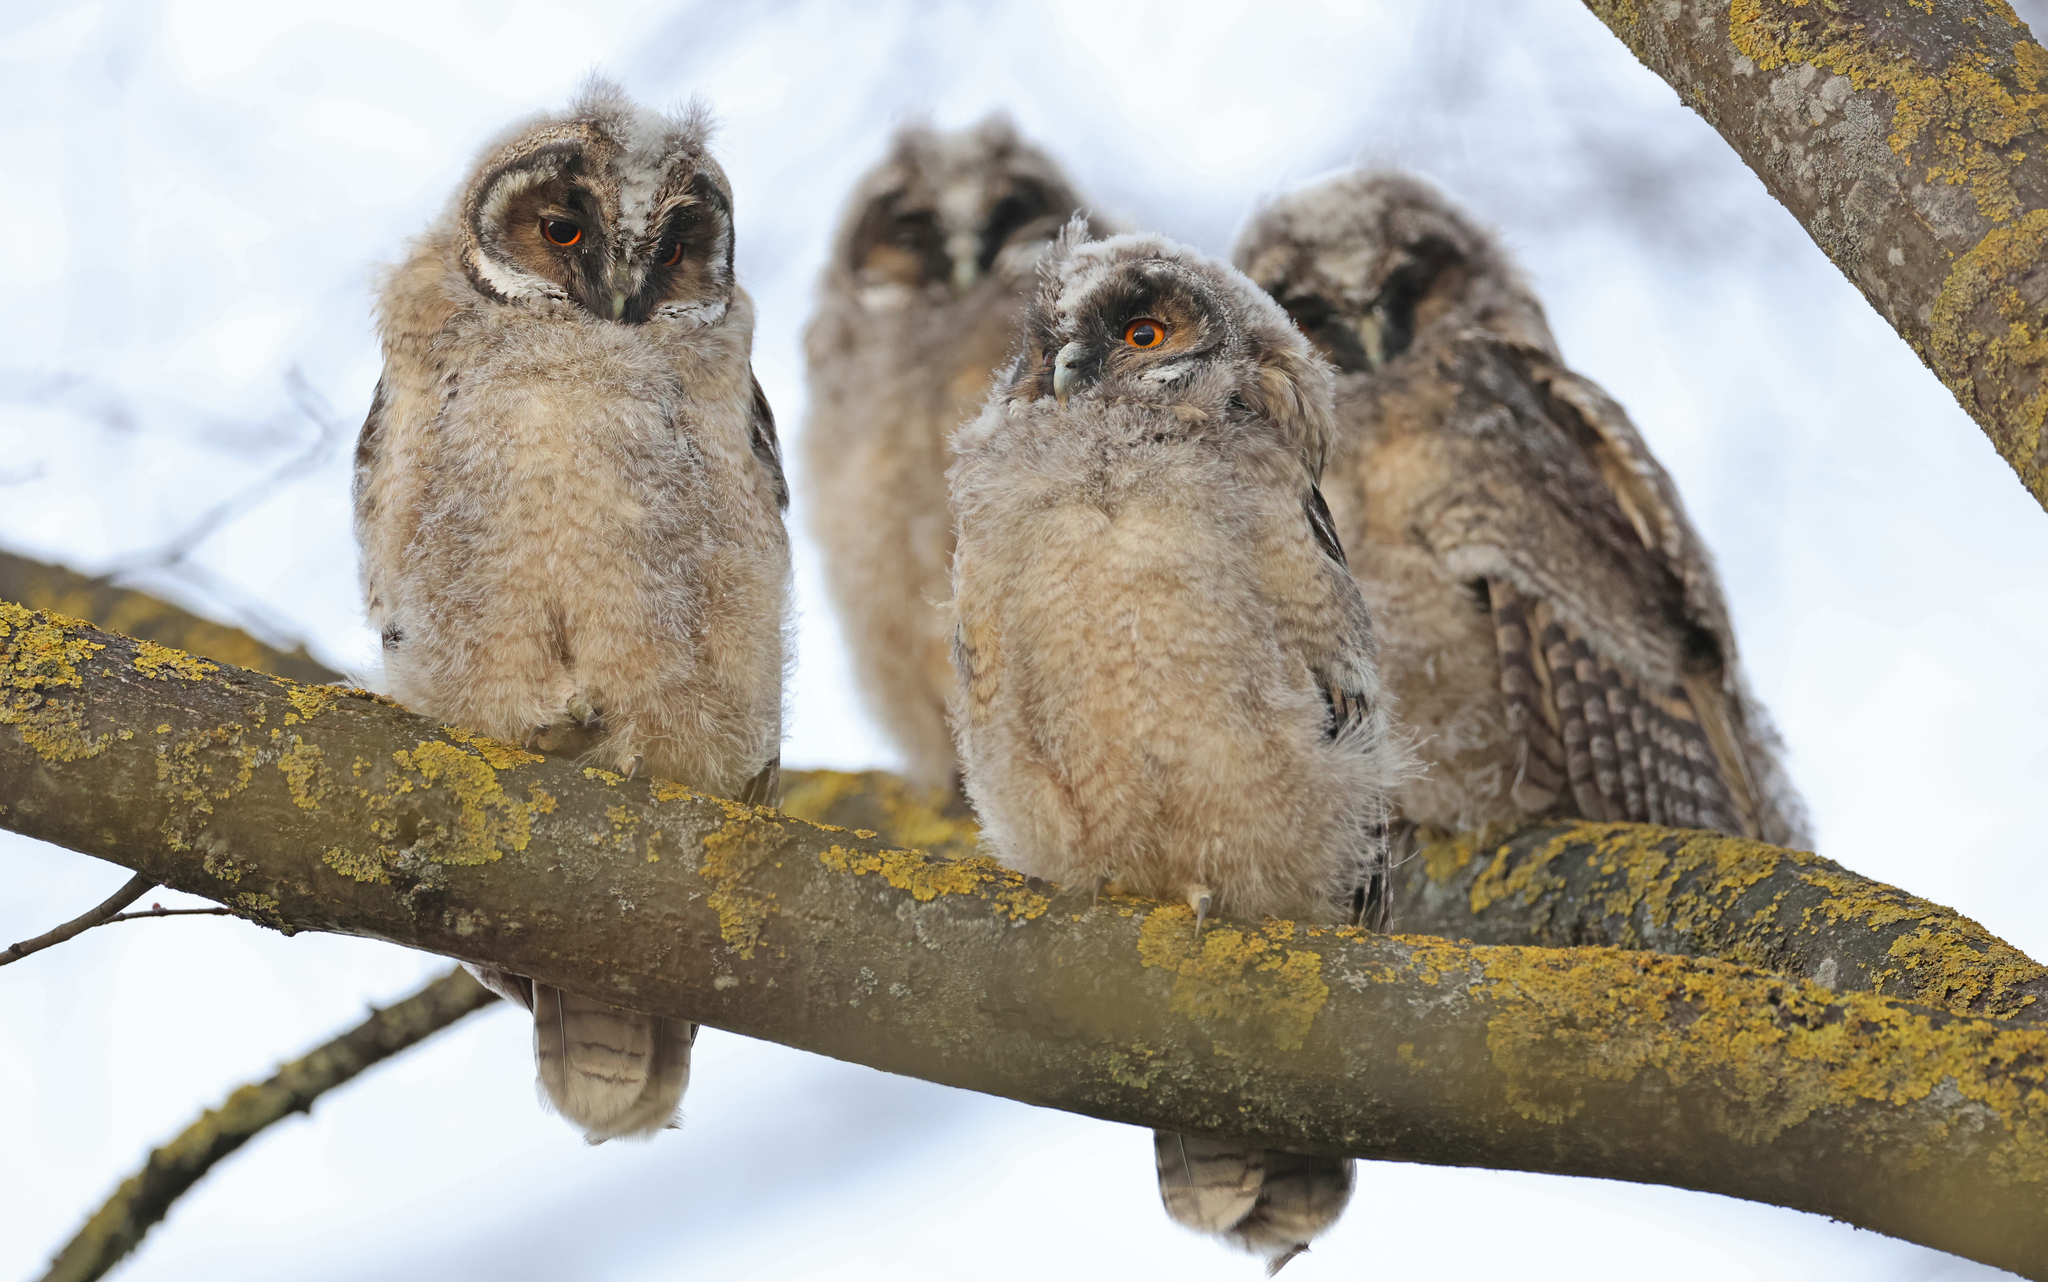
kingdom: Animalia
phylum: Chordata
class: Aves
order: Strigiformes
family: Strigidae
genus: Asio
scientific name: Asio otus
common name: Long-eared owl
